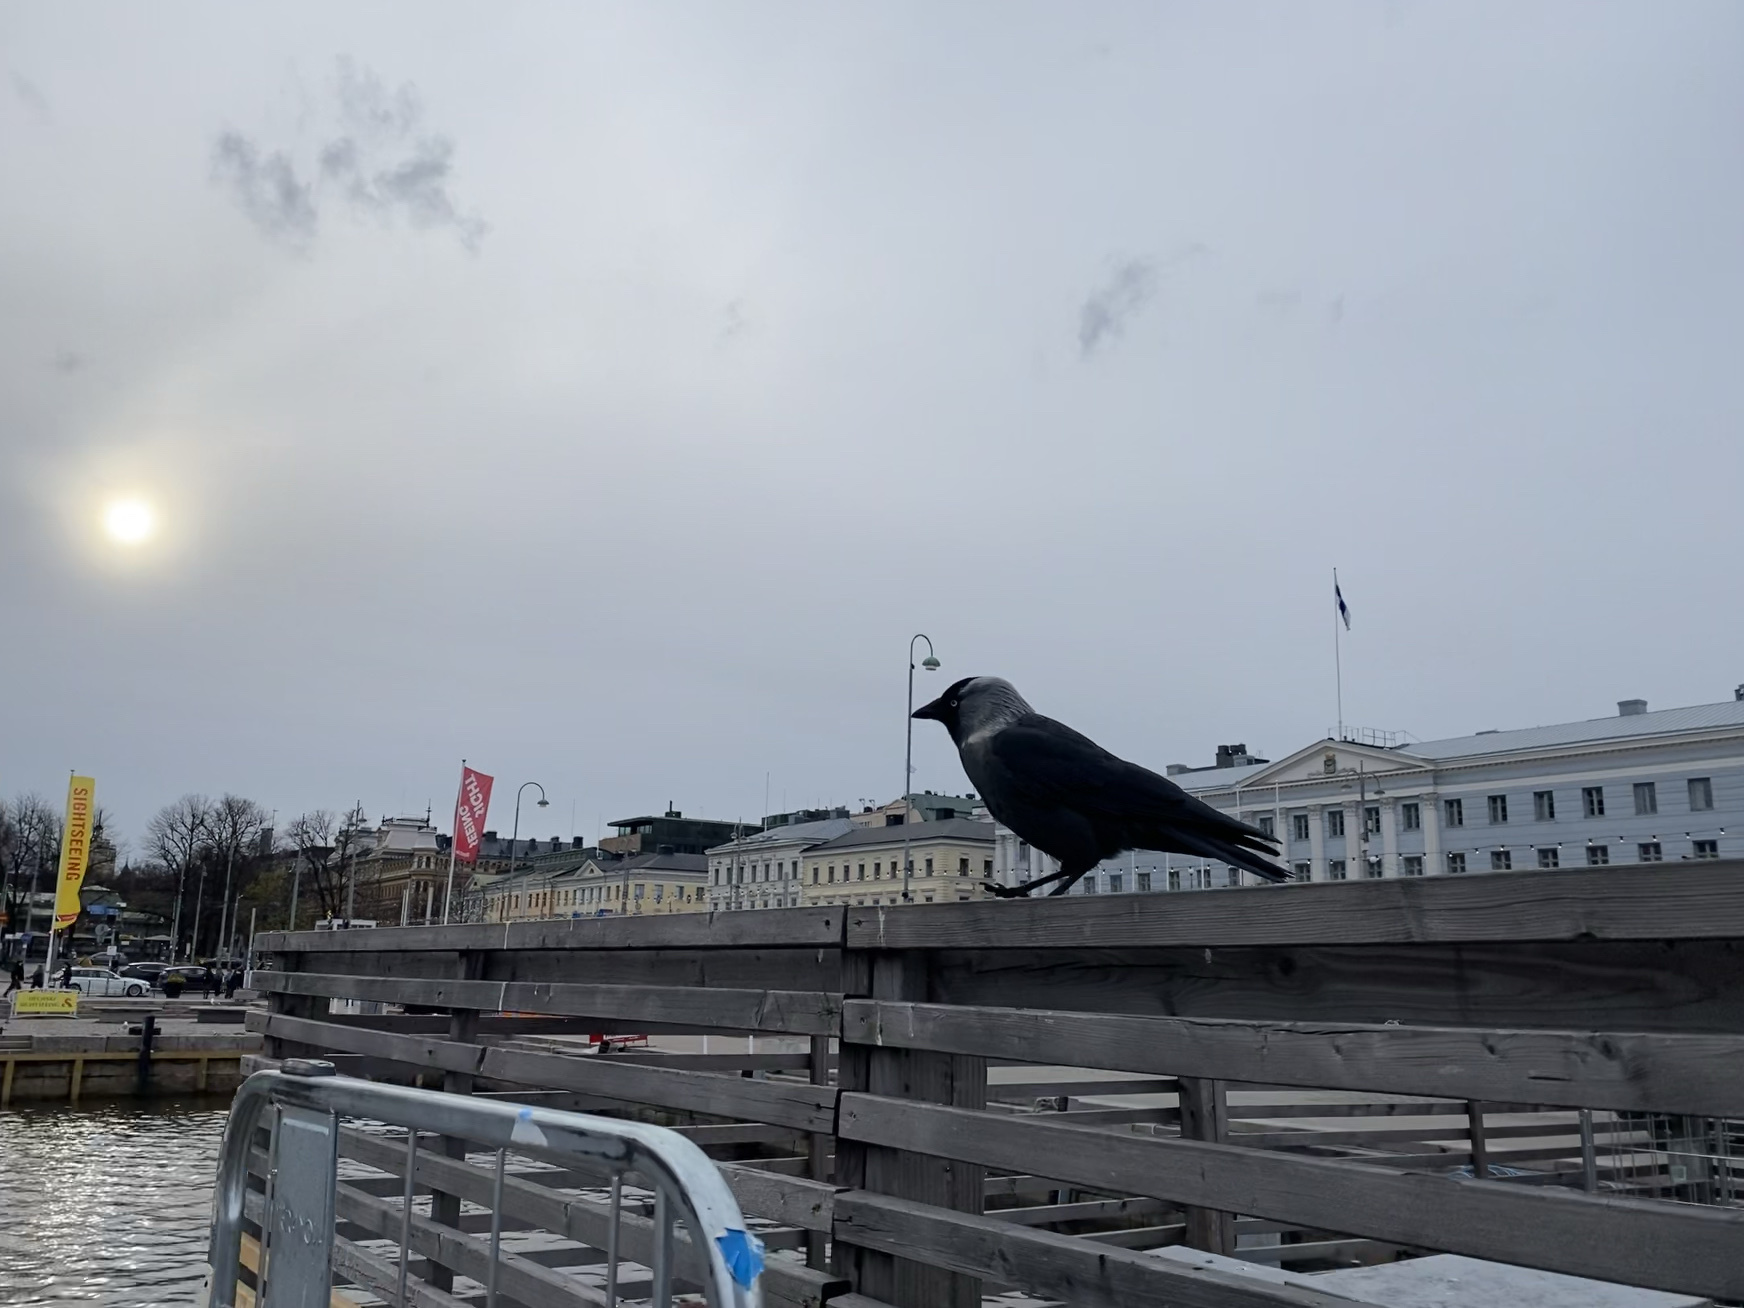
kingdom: Animalia
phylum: Chordata
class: Aves
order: Passeriformes
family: Corvidae
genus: Coloeus
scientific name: Coloeus monedula
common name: Western jackdaw
